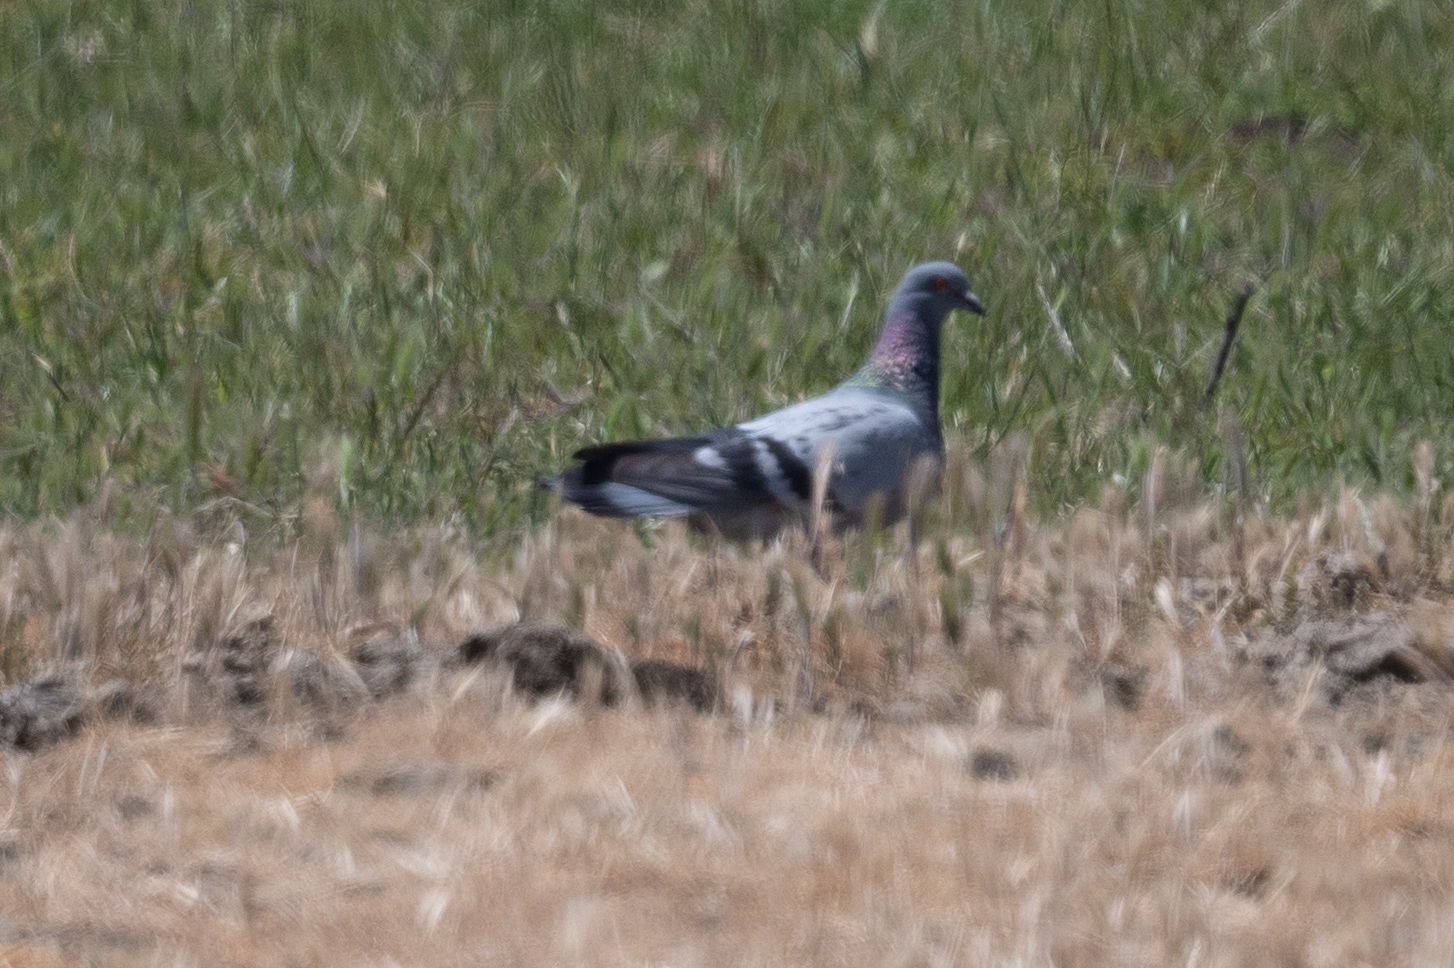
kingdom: Animalia
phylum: Chordata
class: Aves
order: Columbiformes
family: Columbidae
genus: Columba
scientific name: Columba livia
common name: Rock pigeon
